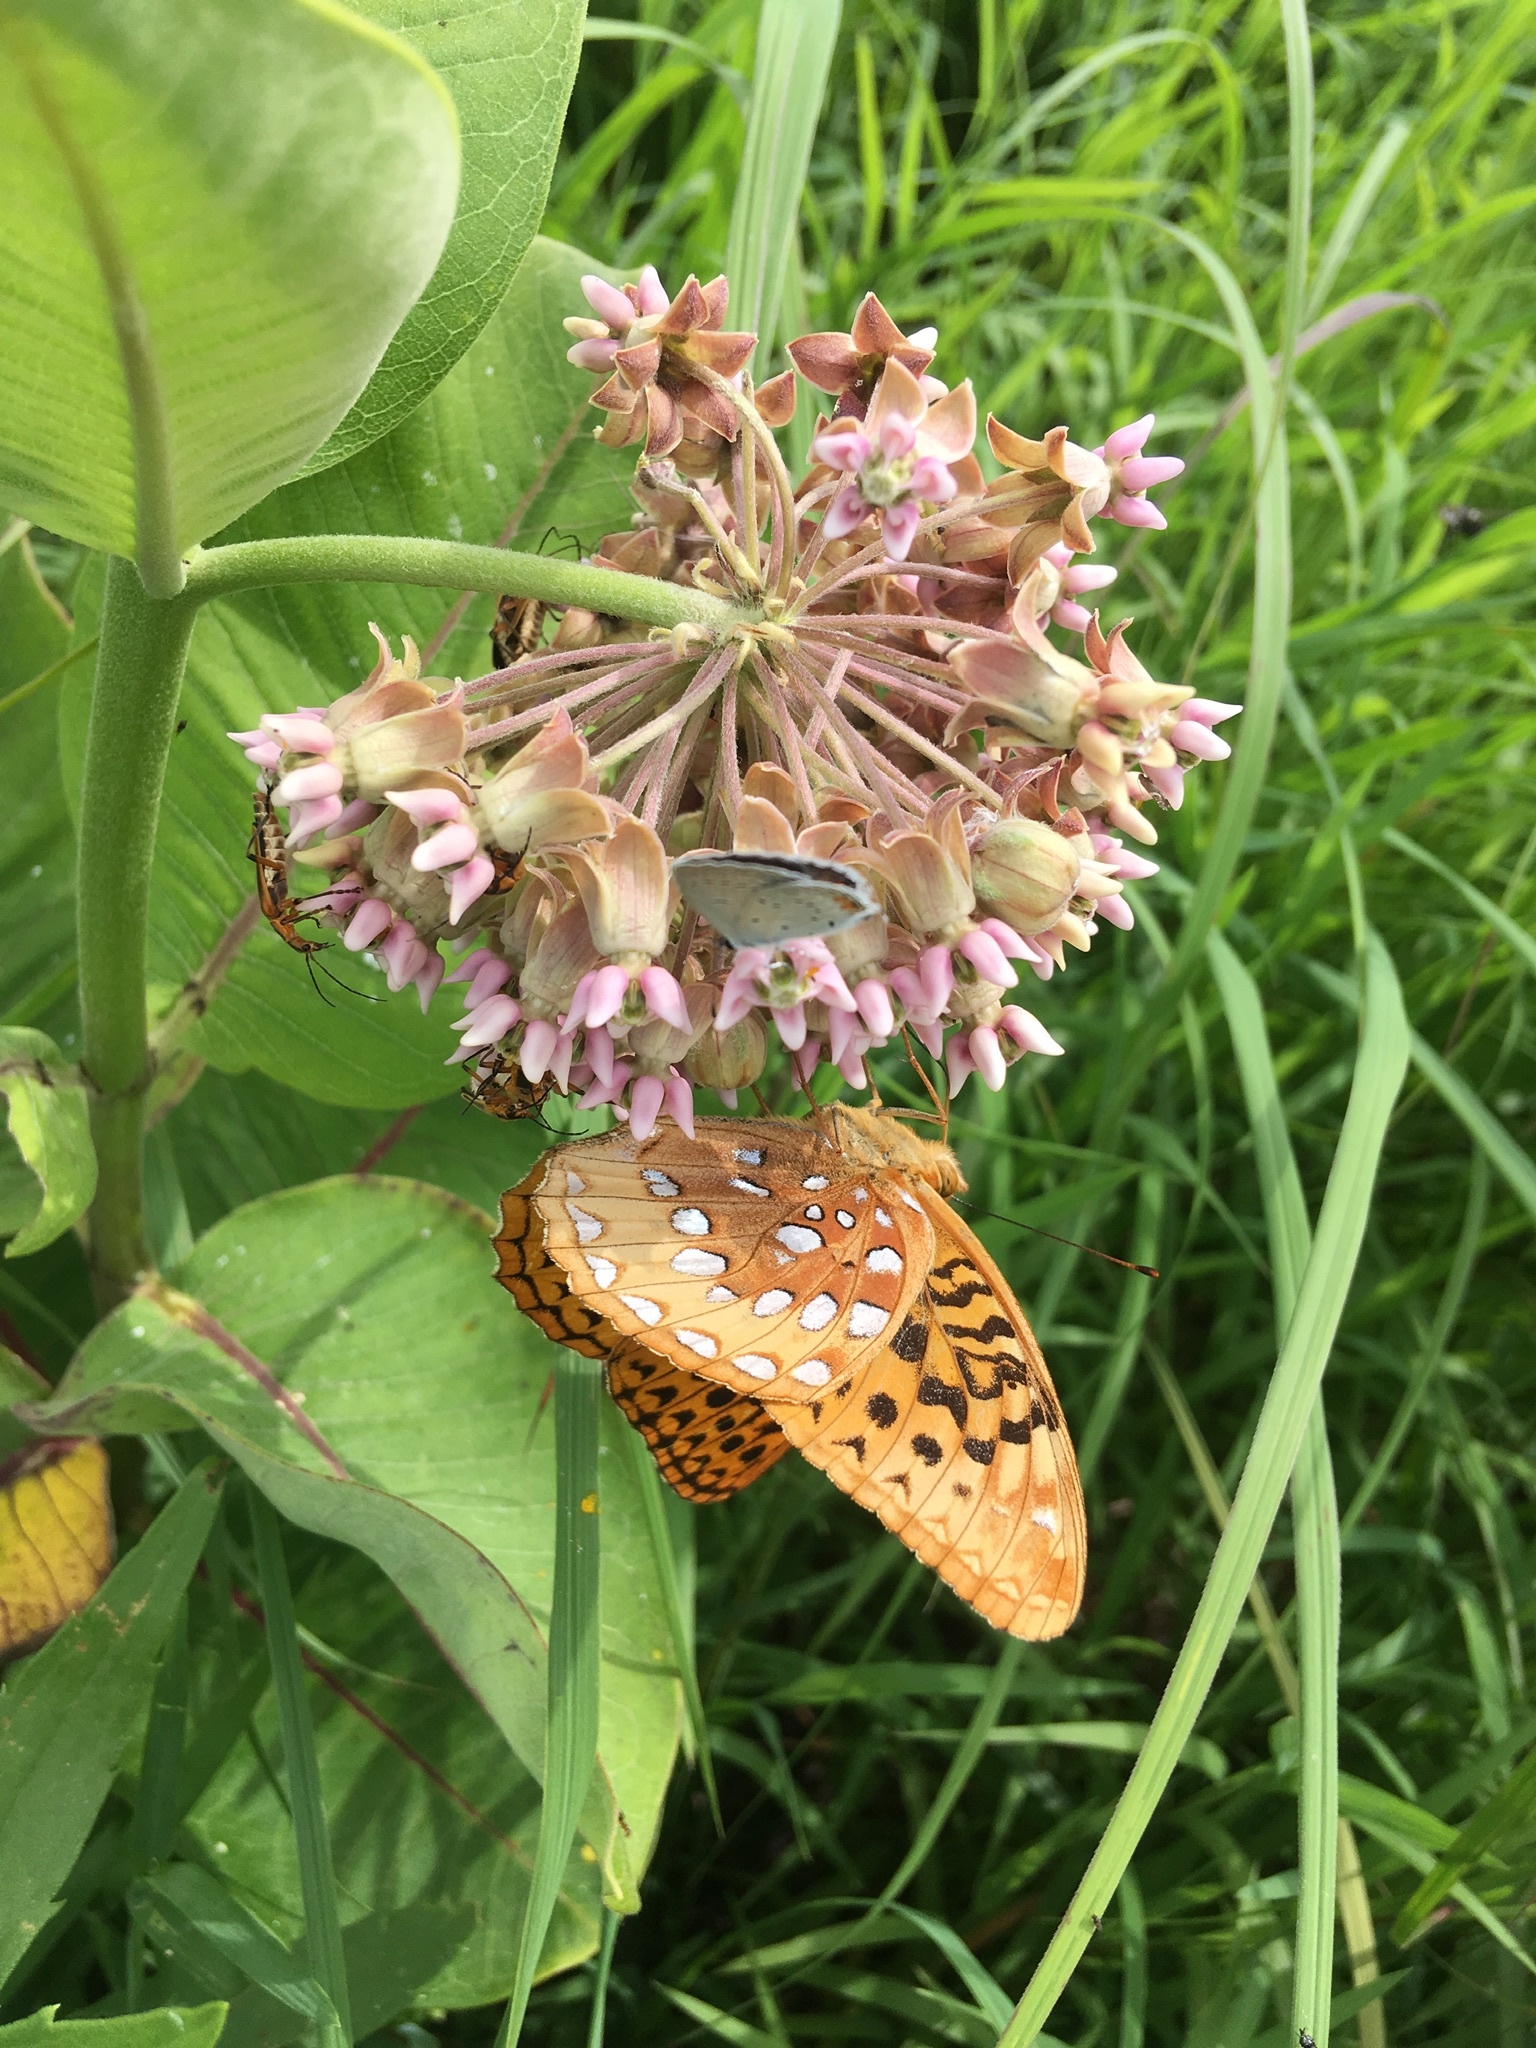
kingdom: Animalia
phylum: Arthropoda
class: Insecta
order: Lepidoptera
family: Nymphalidae
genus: Speyeria
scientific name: Speyeria cybele
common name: Great spangled fritillary
